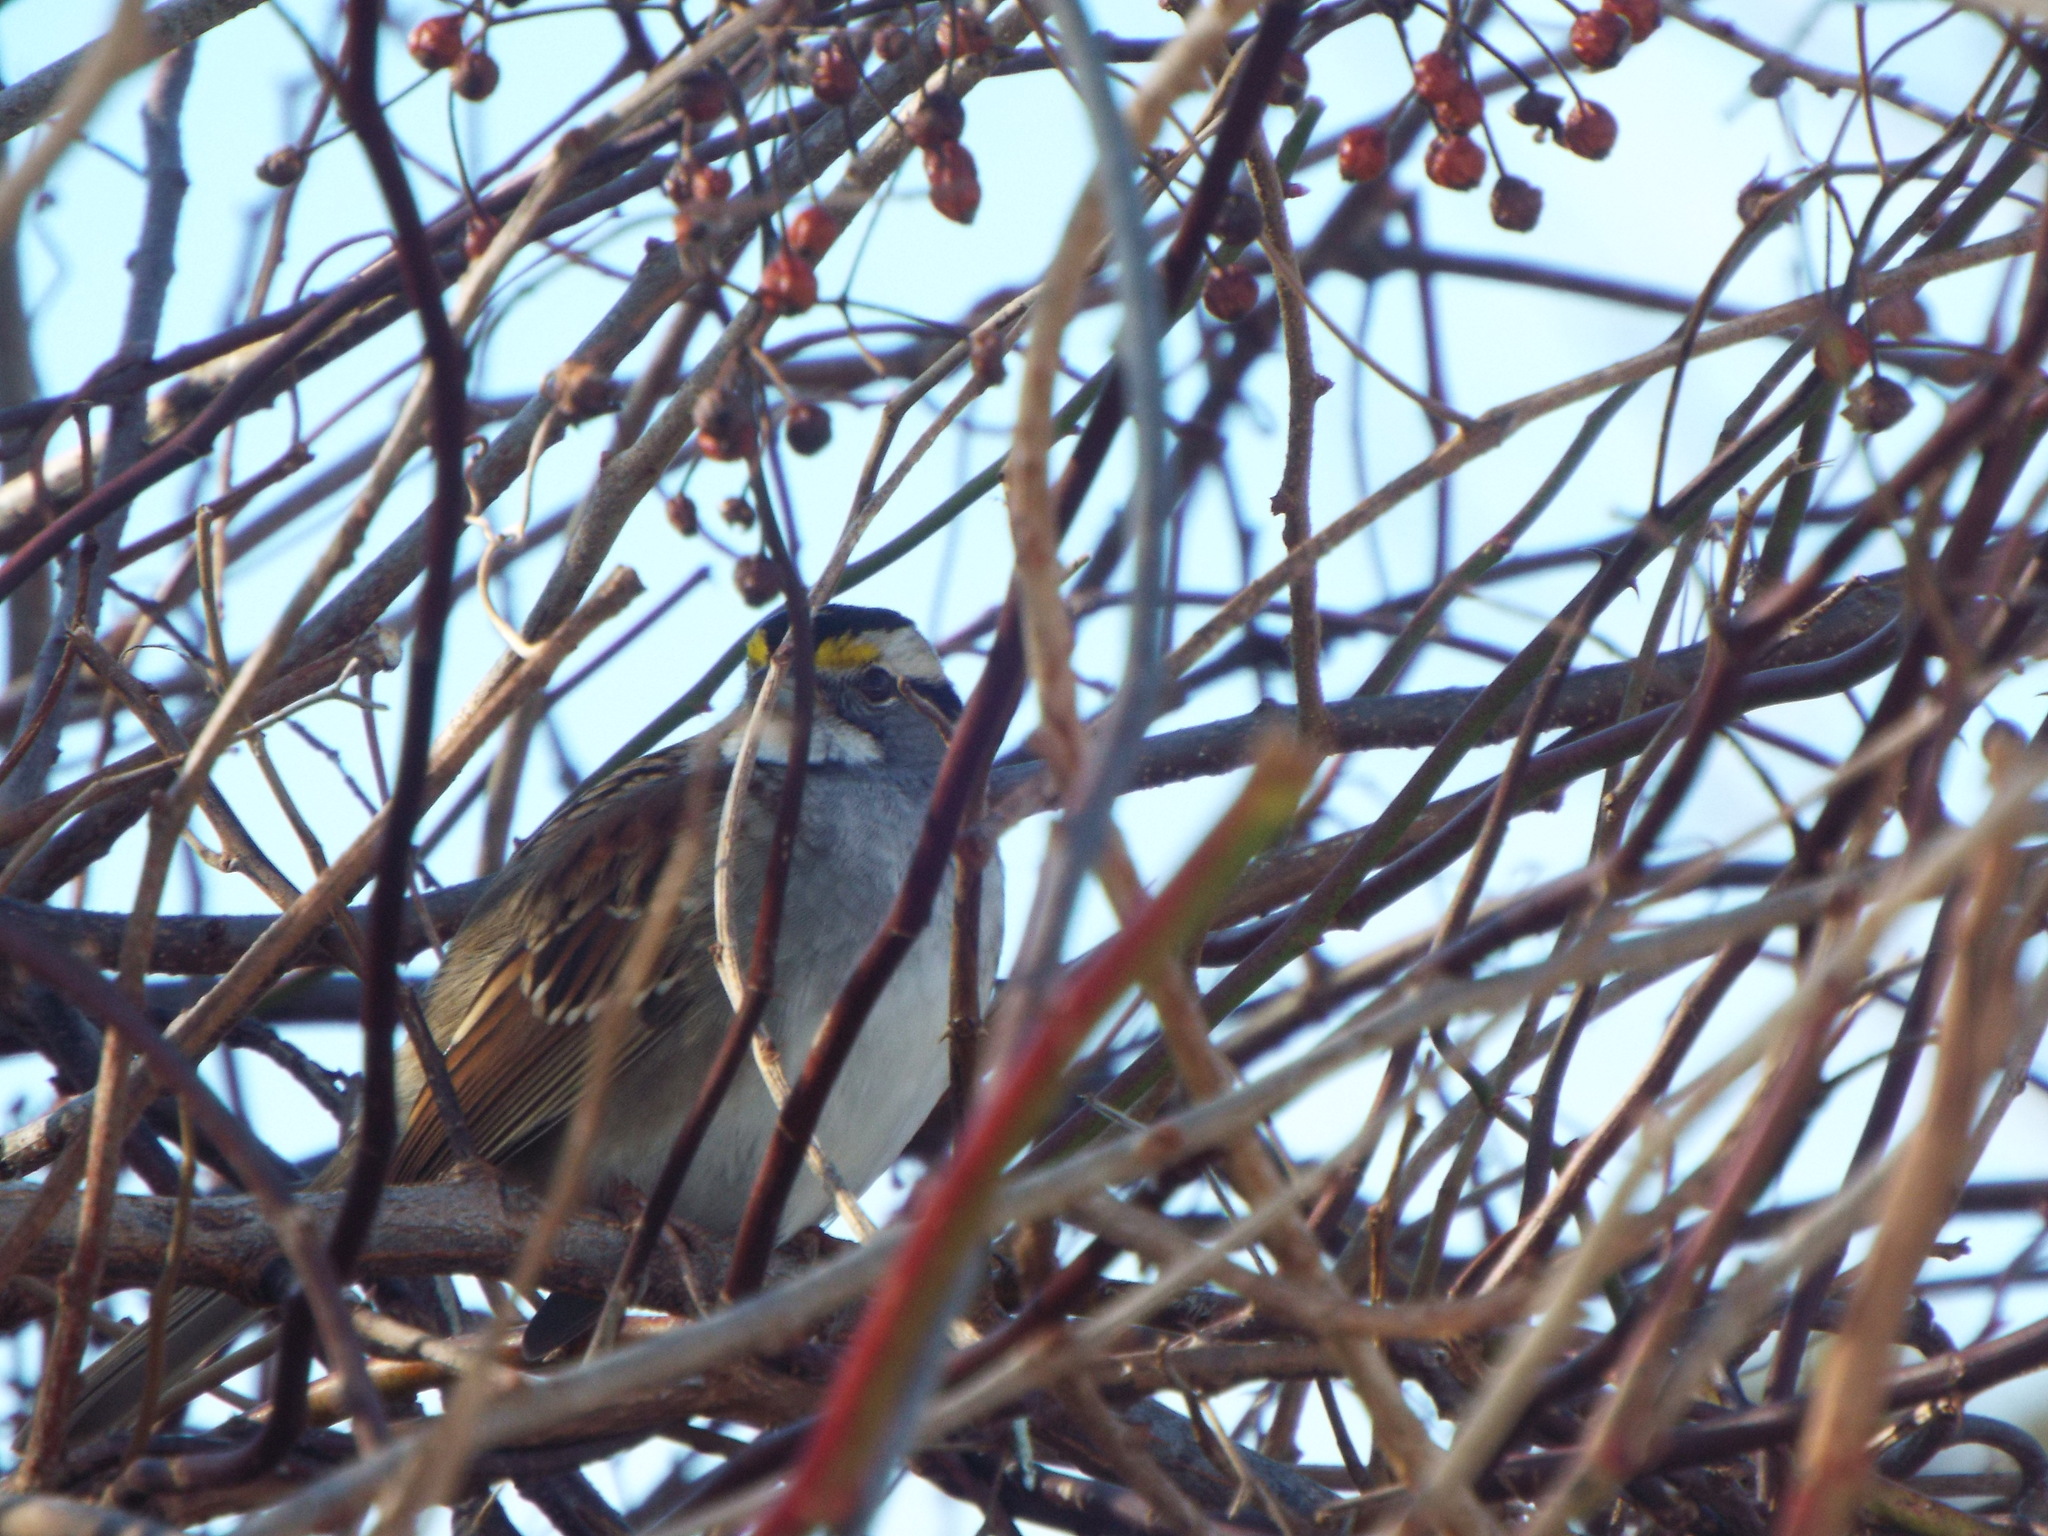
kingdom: Animalia
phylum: Chordata
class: Aves
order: Passeriformes
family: Passerellidae
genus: Zonotrichia
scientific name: Zonotrichia albicollis
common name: White-throated sparrow
